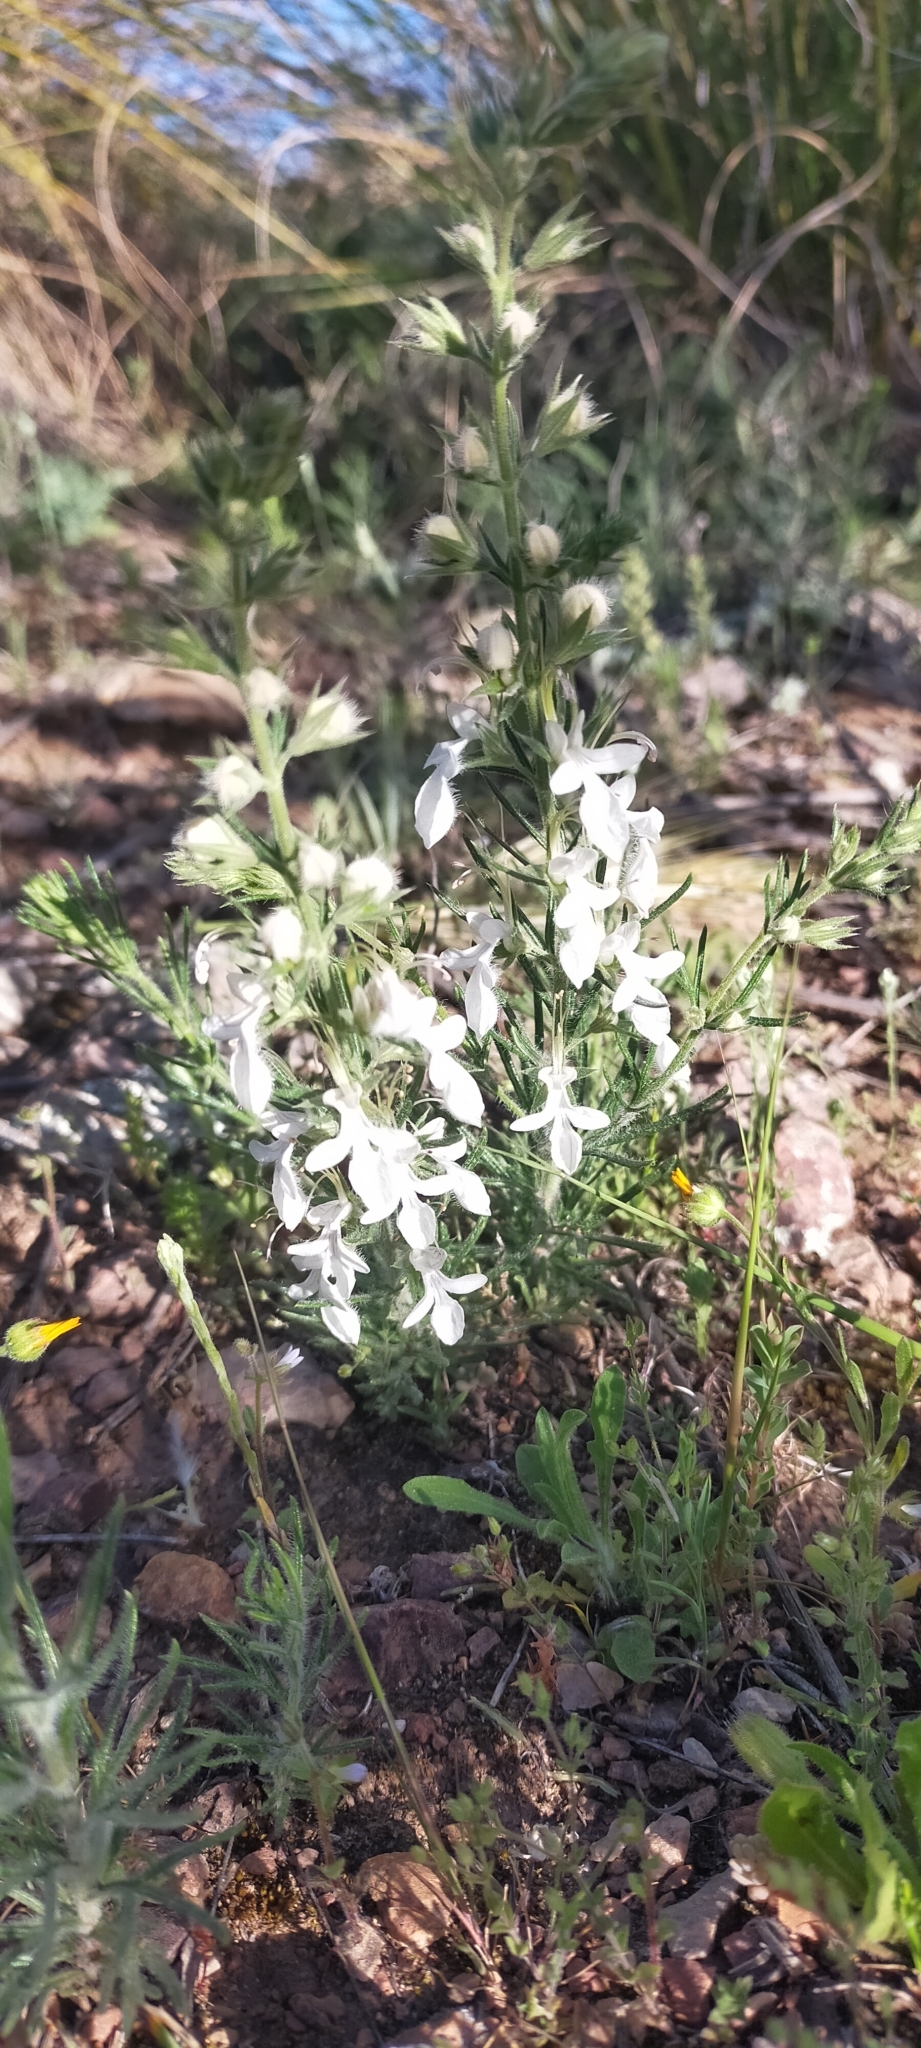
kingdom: Plantae
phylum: Tracheophyta
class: Magnoliopsida
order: Lamiales
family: Lamiaceae
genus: Teucrium
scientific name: Teucrium pseudochamaepitys
